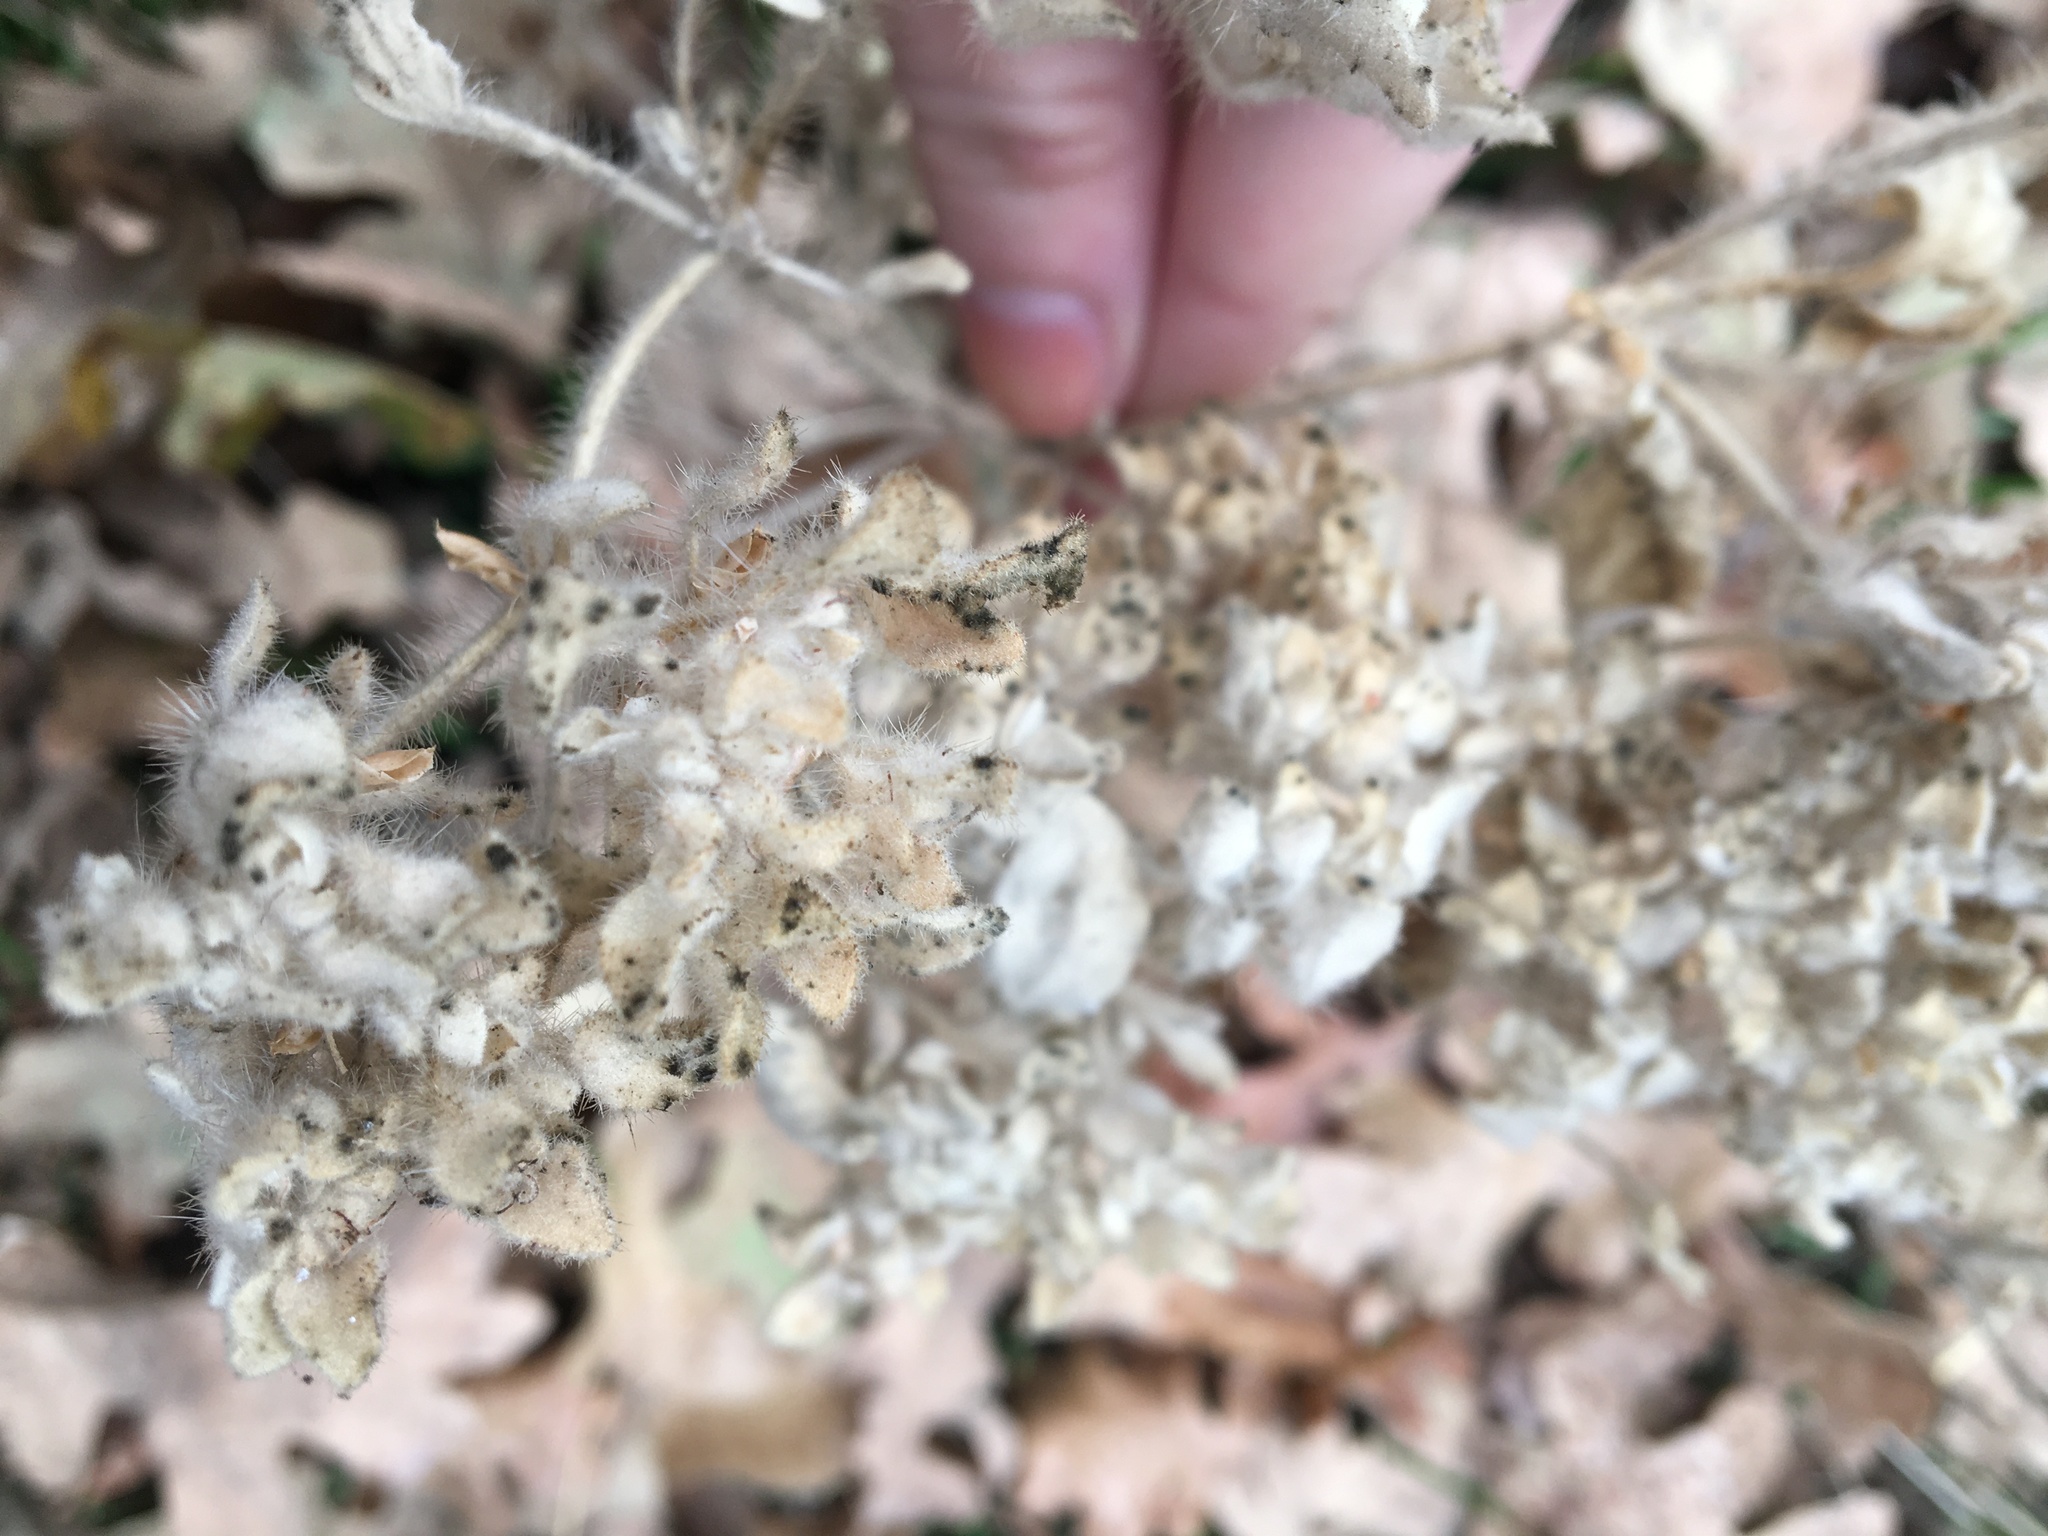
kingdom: Plantae
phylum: Tracheophyta
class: Magnoliopsida
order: Malpighiales
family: Euphorbiaceae
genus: Croton
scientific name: Croton setiger
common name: Dove weed
